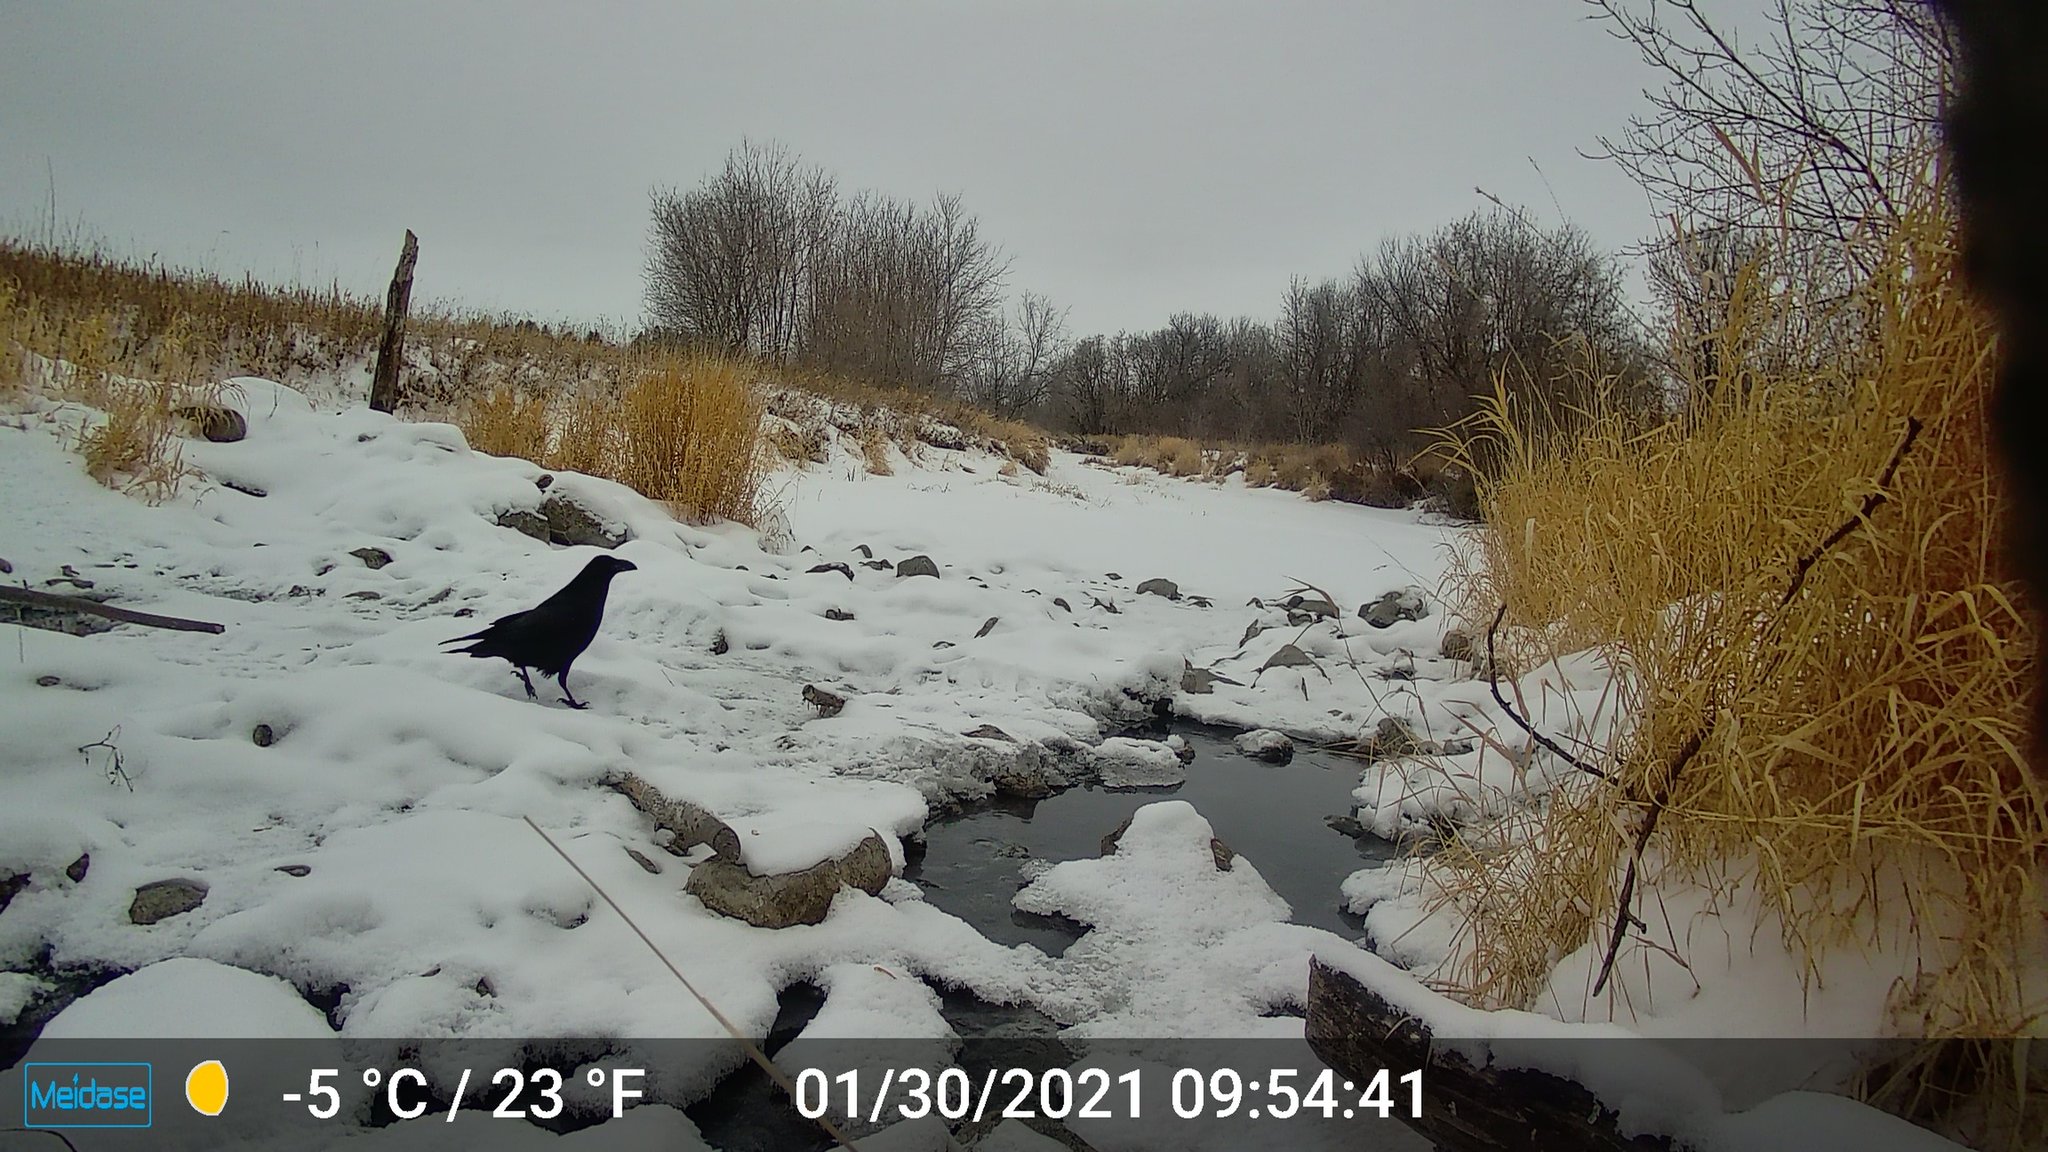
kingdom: Animalia
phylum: Chordata
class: Aves
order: Passeriformes
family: Corvidae
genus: Corvus
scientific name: Corvus corax
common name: Common raven
